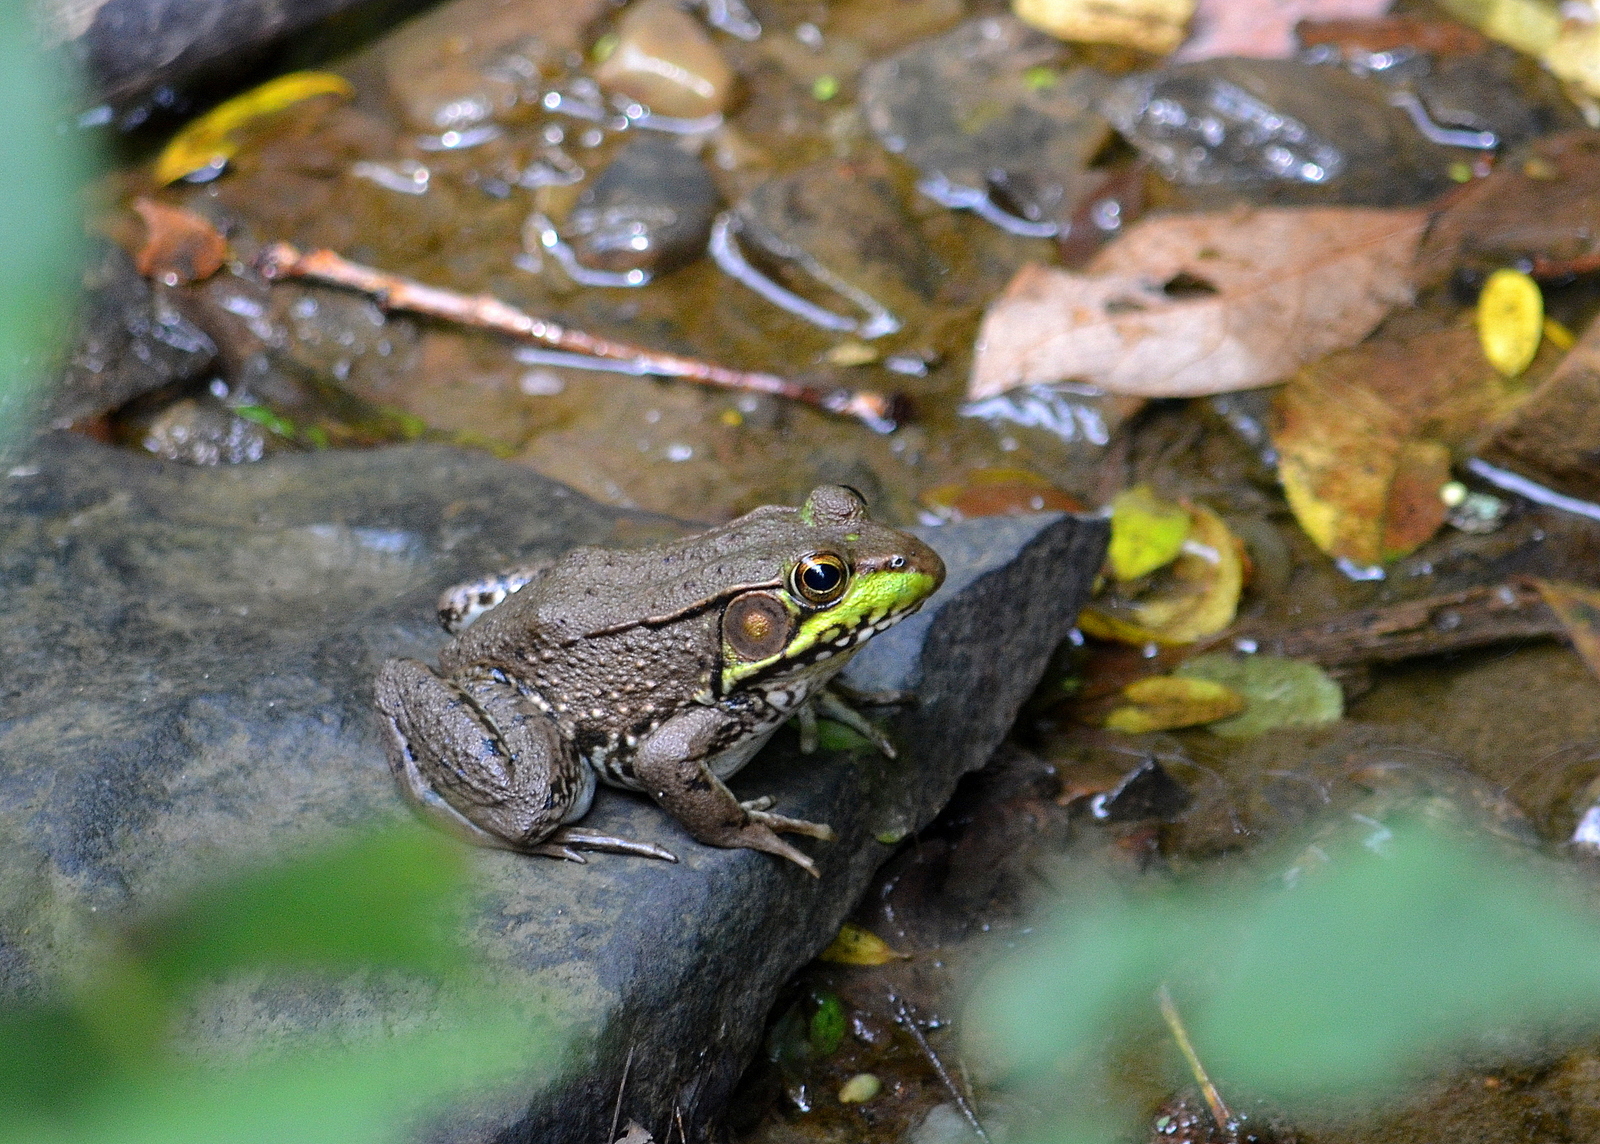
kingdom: Animalia
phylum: Chordata
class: Amphibia
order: Anura
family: Ranidae
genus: Lithobates
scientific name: Lithobates clamitans
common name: Green frog
